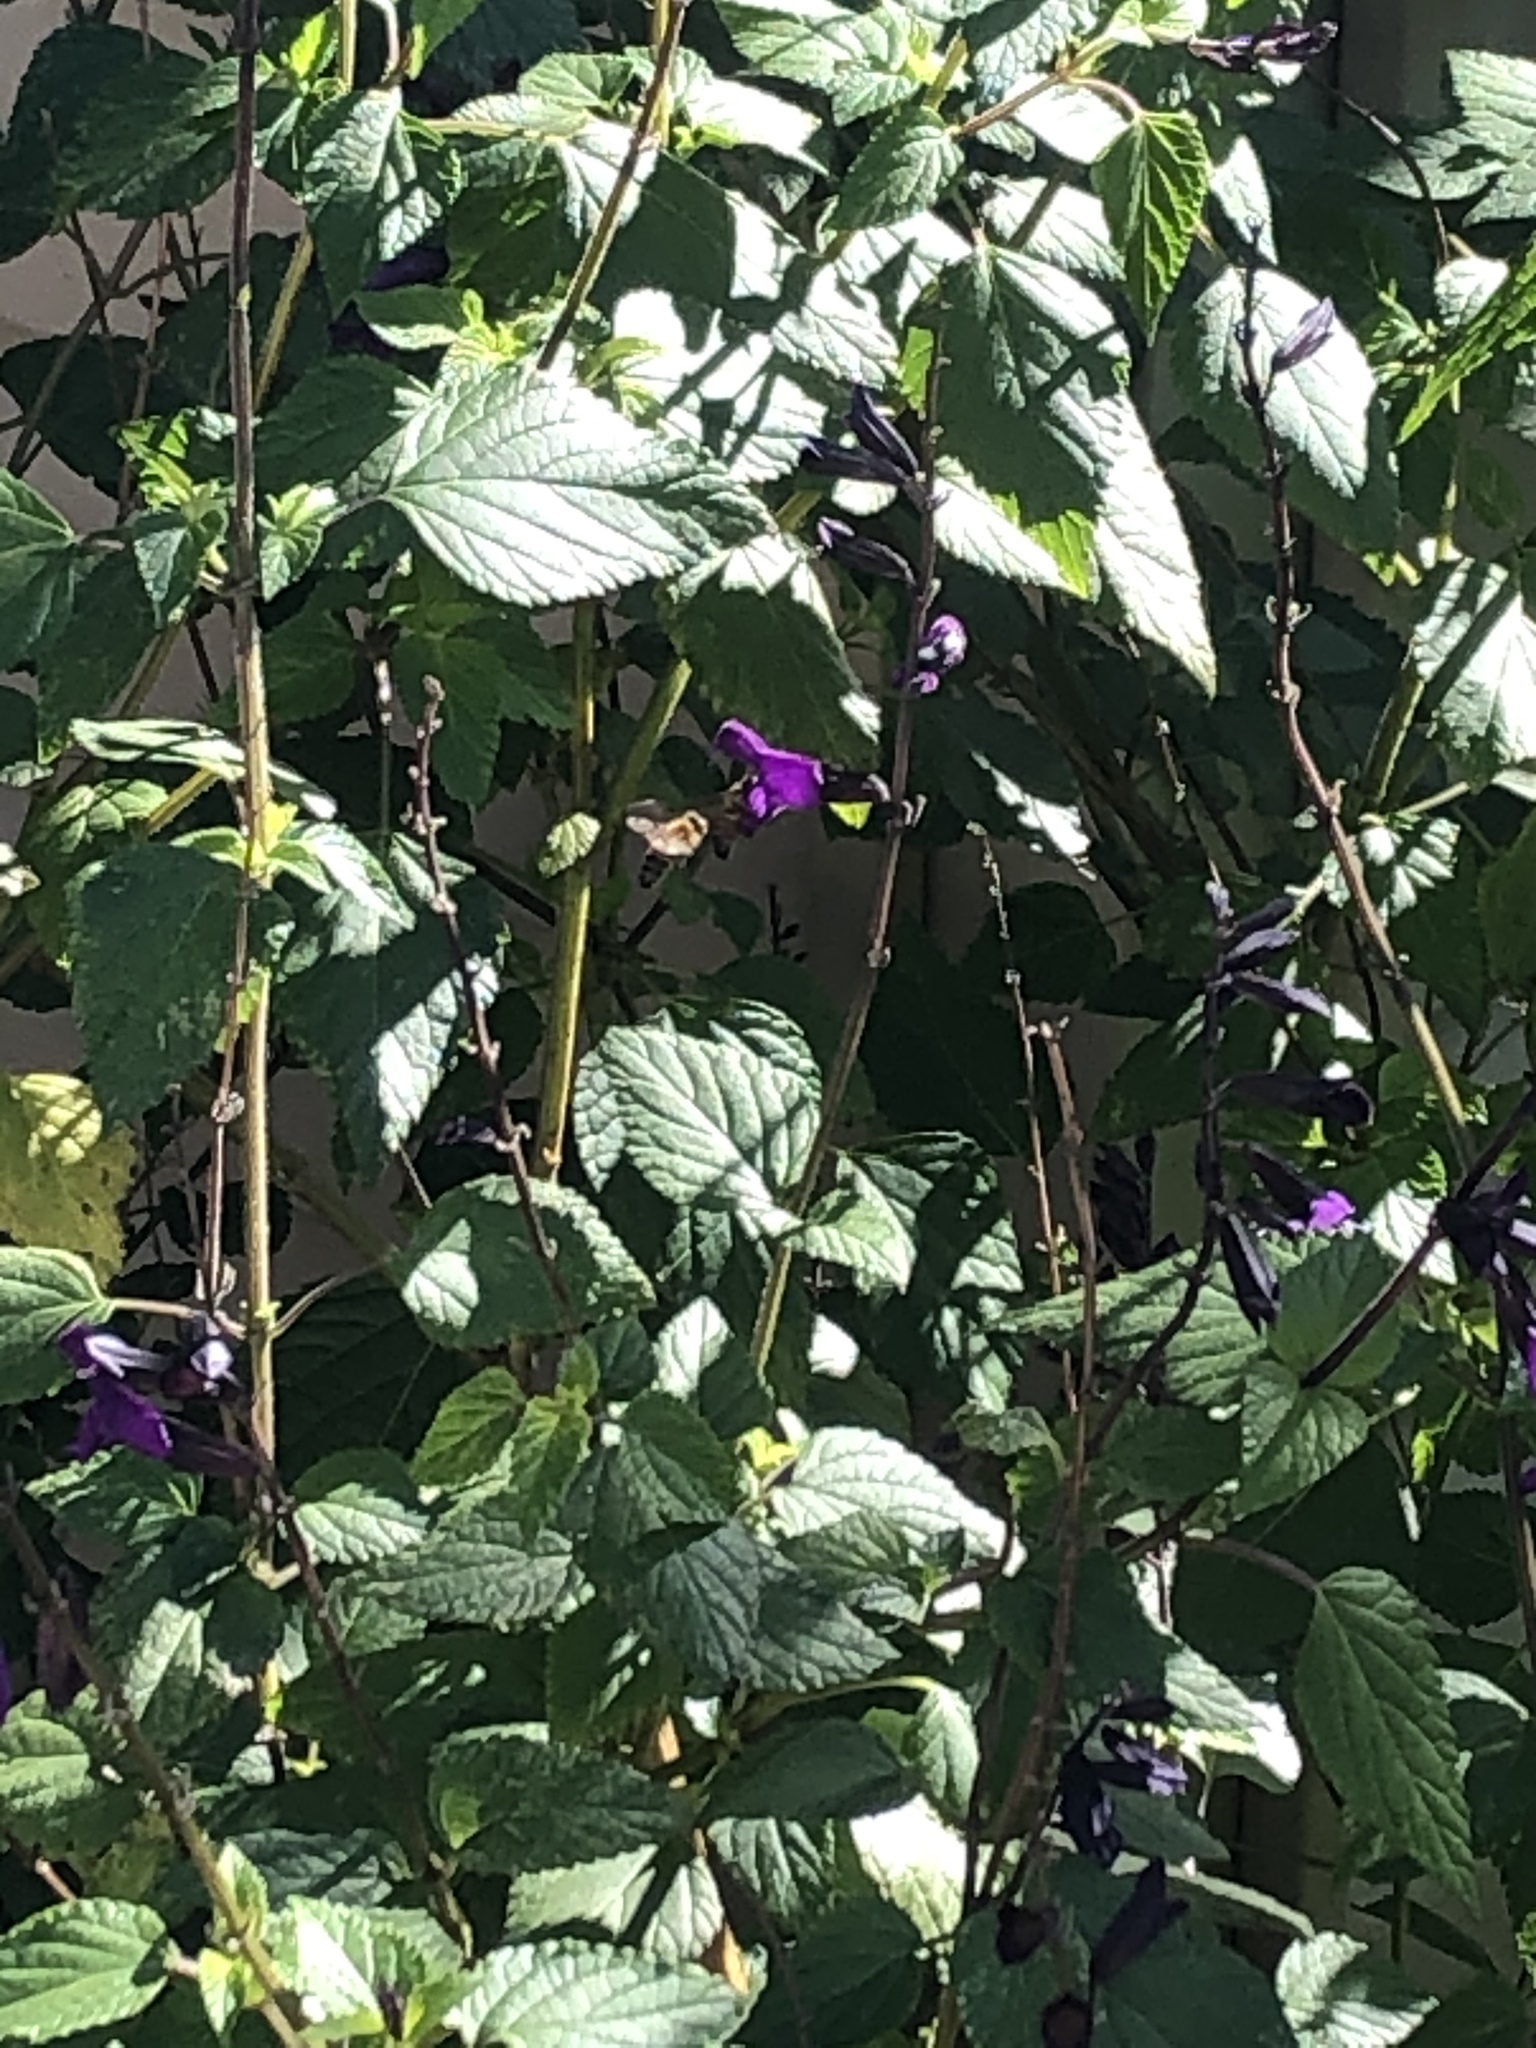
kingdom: Animalia
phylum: Arthropoda
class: Insecta
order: Hymenoptera
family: Apidae
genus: Apis
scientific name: Apis mellifera
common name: Honey bee
